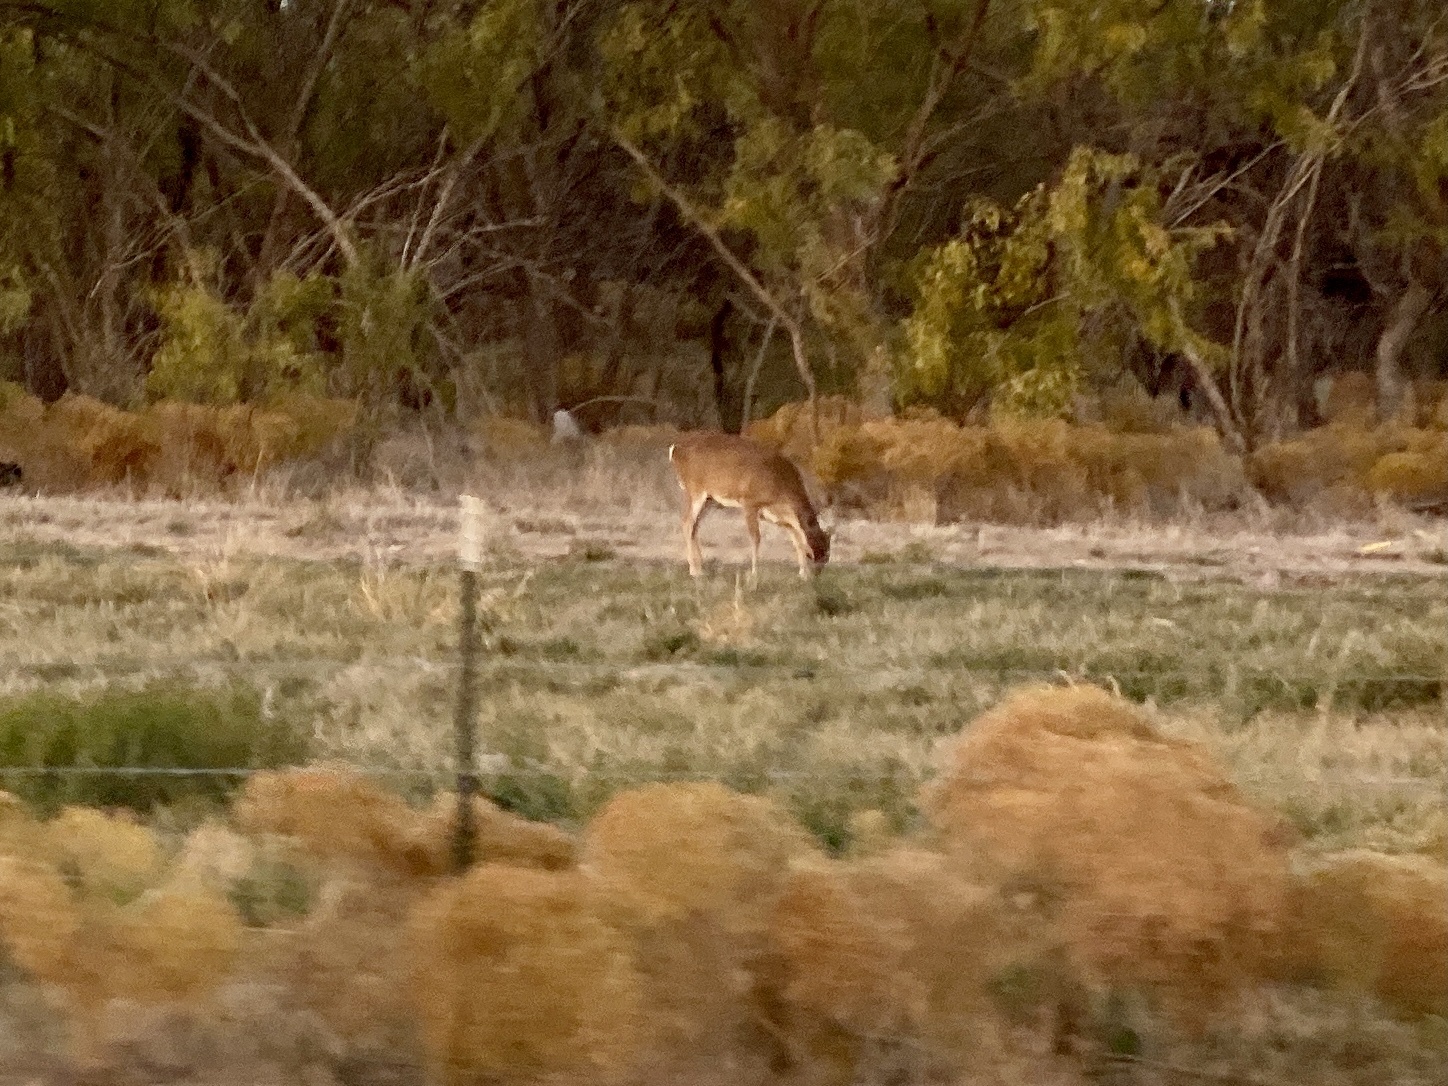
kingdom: Animalia
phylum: Chordata
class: Mammalia
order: Artiodactyla
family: Cervidae
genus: Odocoileus
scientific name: Odocoileus virginianus
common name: White-tailed deer
